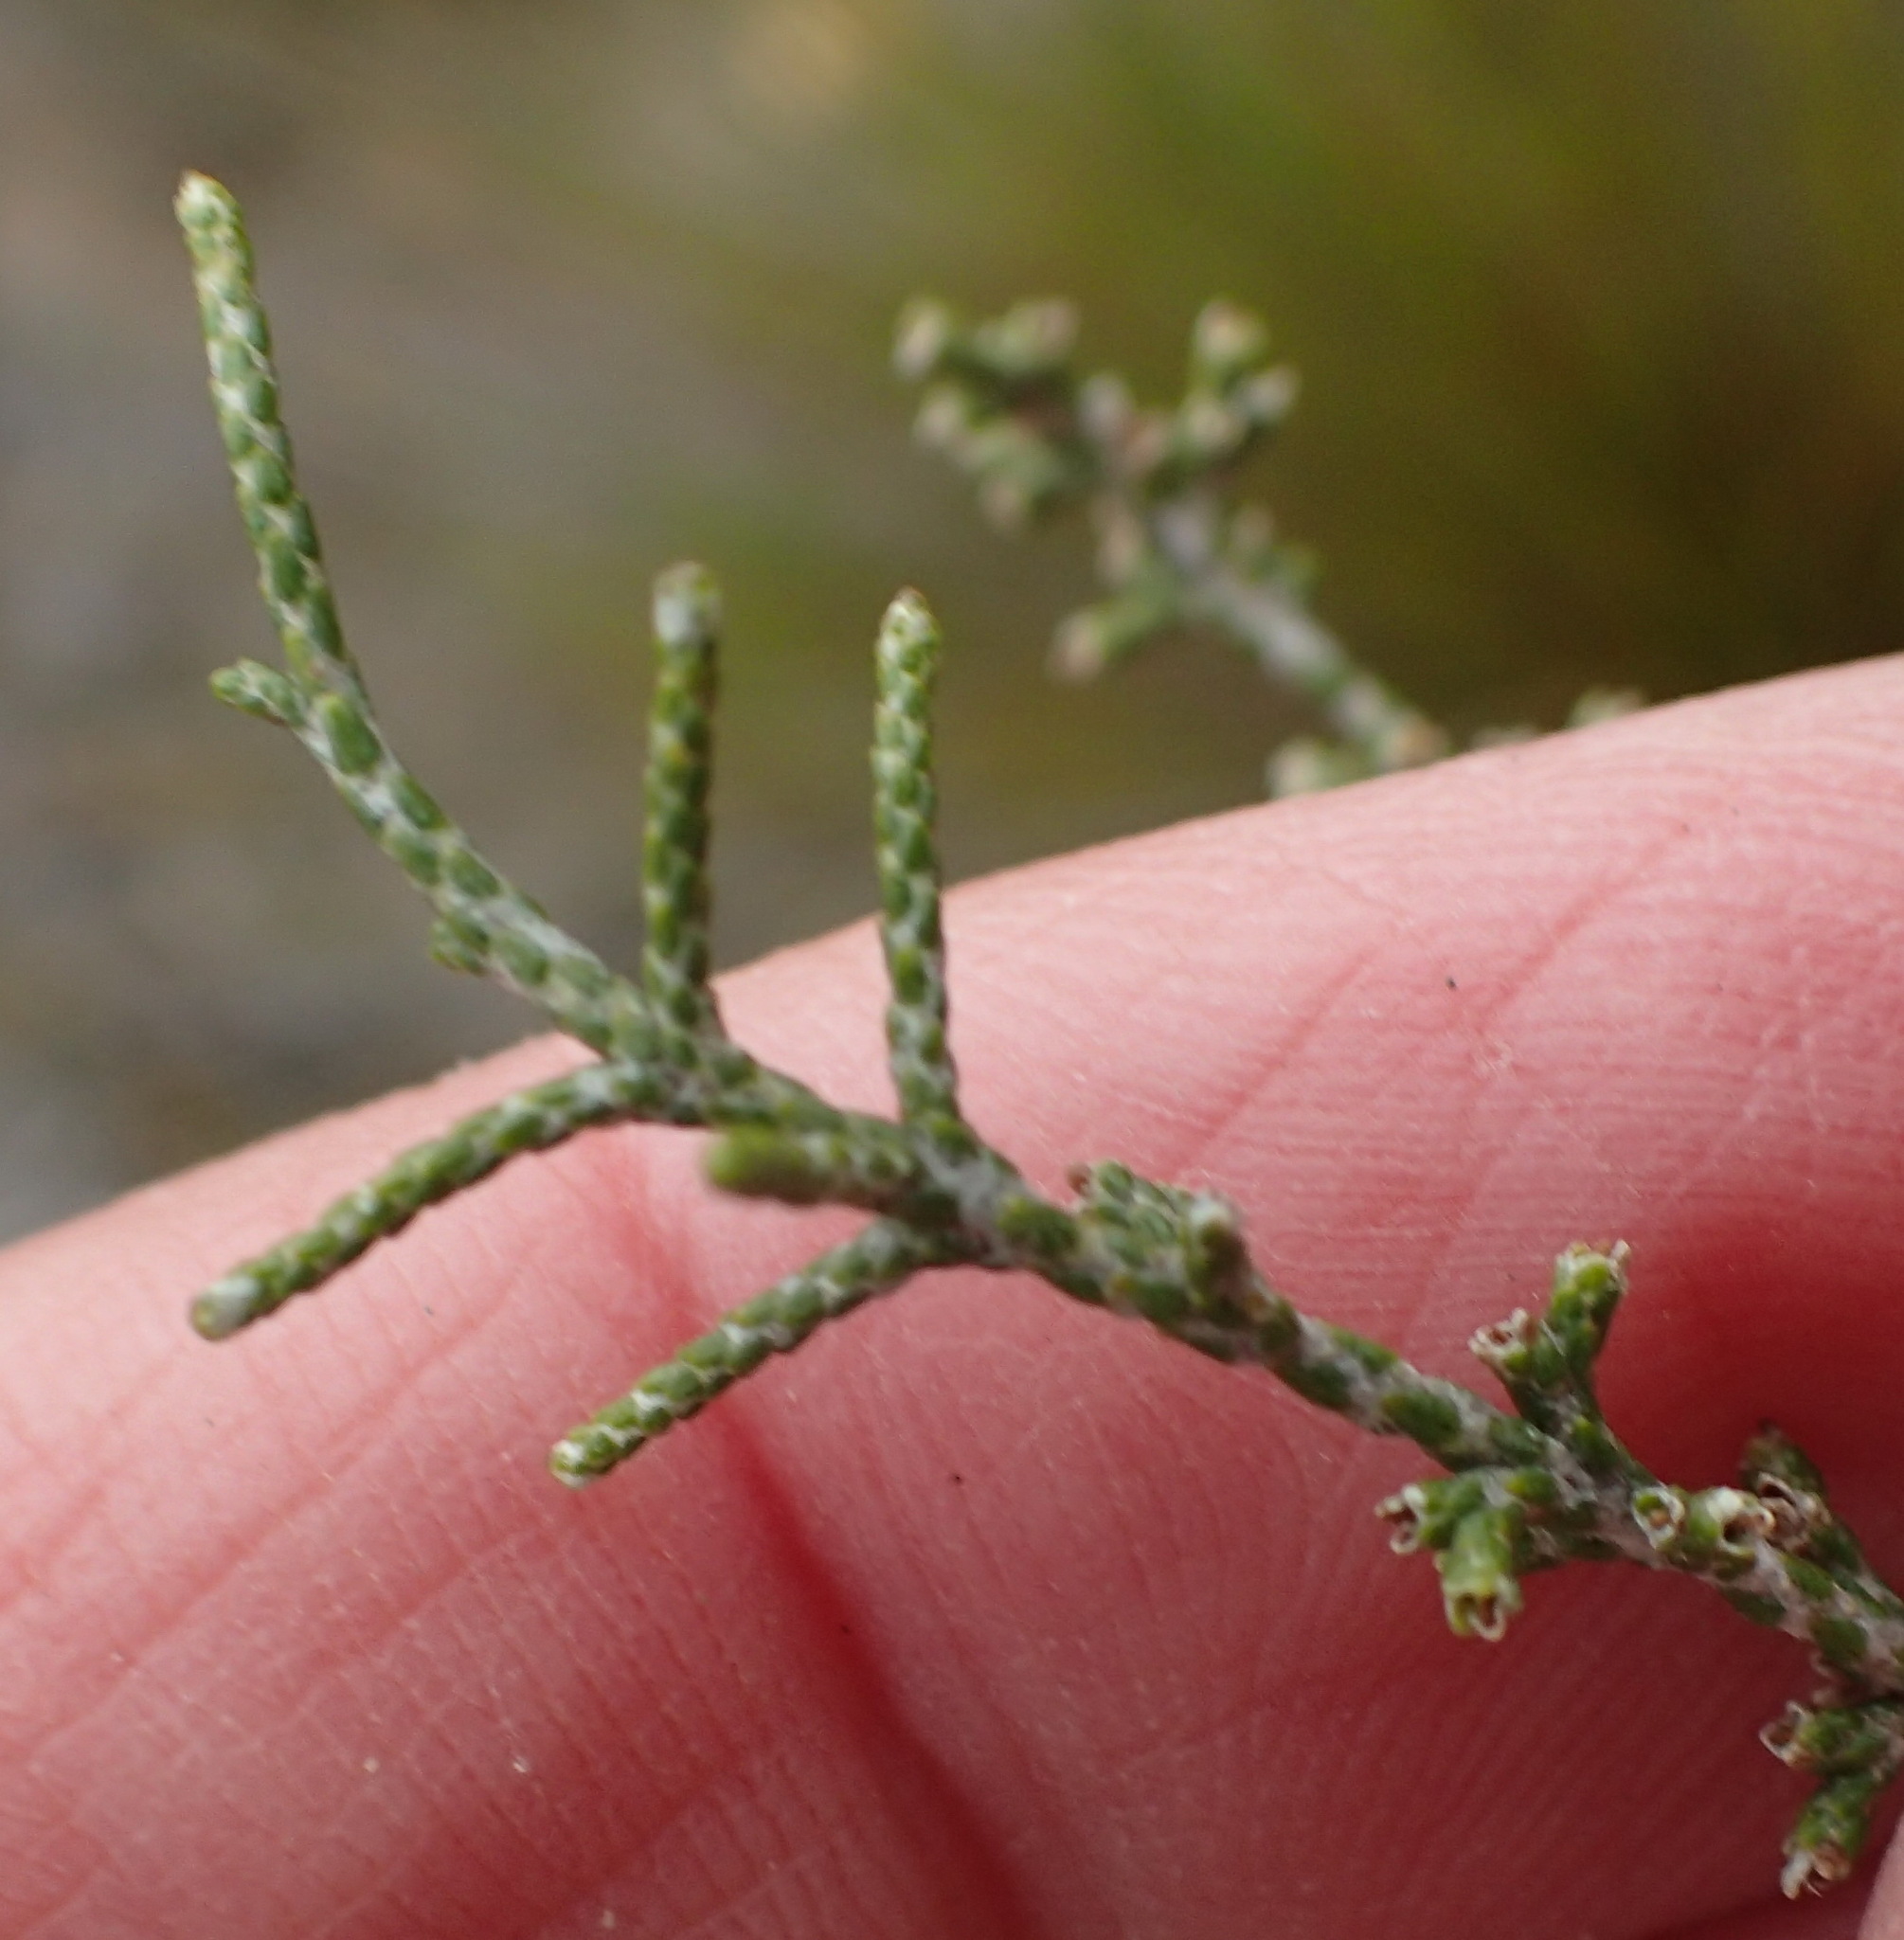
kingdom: Plantae
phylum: Tracheophyta
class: Magnoliopsida
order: Asterales
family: Asteraceae
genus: Dicerothamnus
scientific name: Dicerothamnus rhinocerotis
